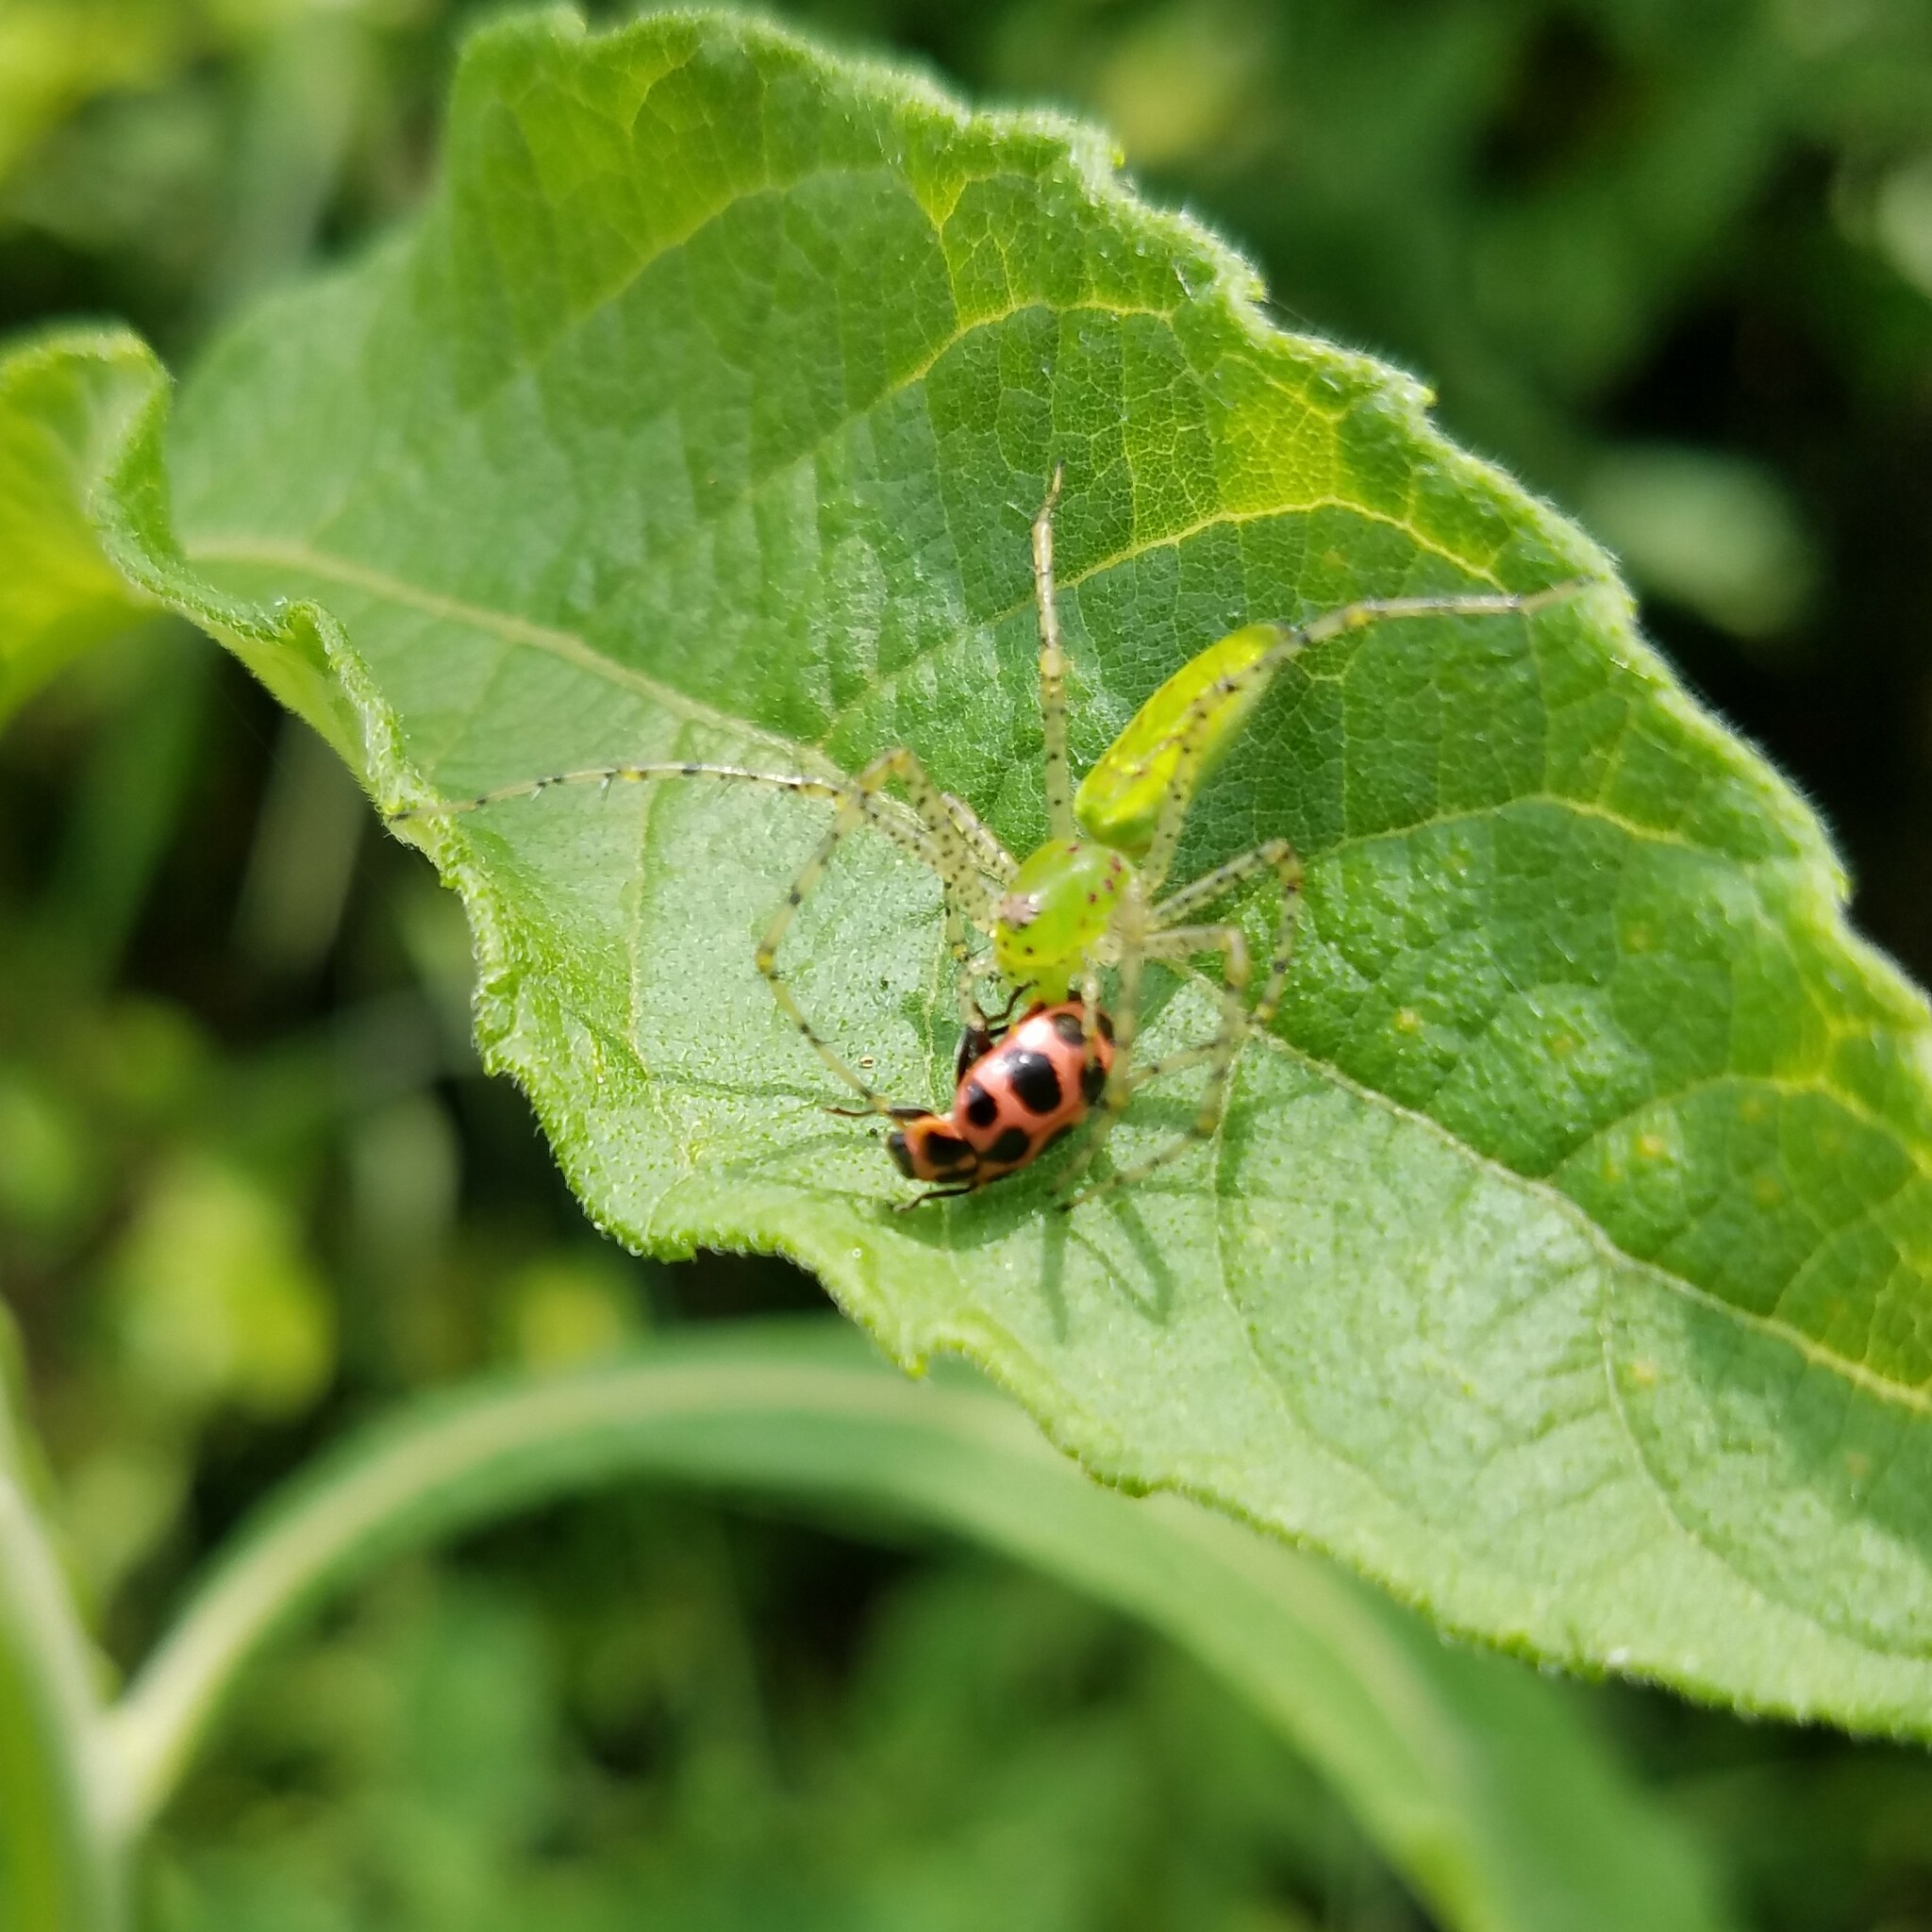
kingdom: Animalia
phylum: Arthropoda
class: Arachnida
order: Araneae
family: Oxyopidae
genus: Peucetia
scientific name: Peucetia viridans
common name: Lynx spiders
